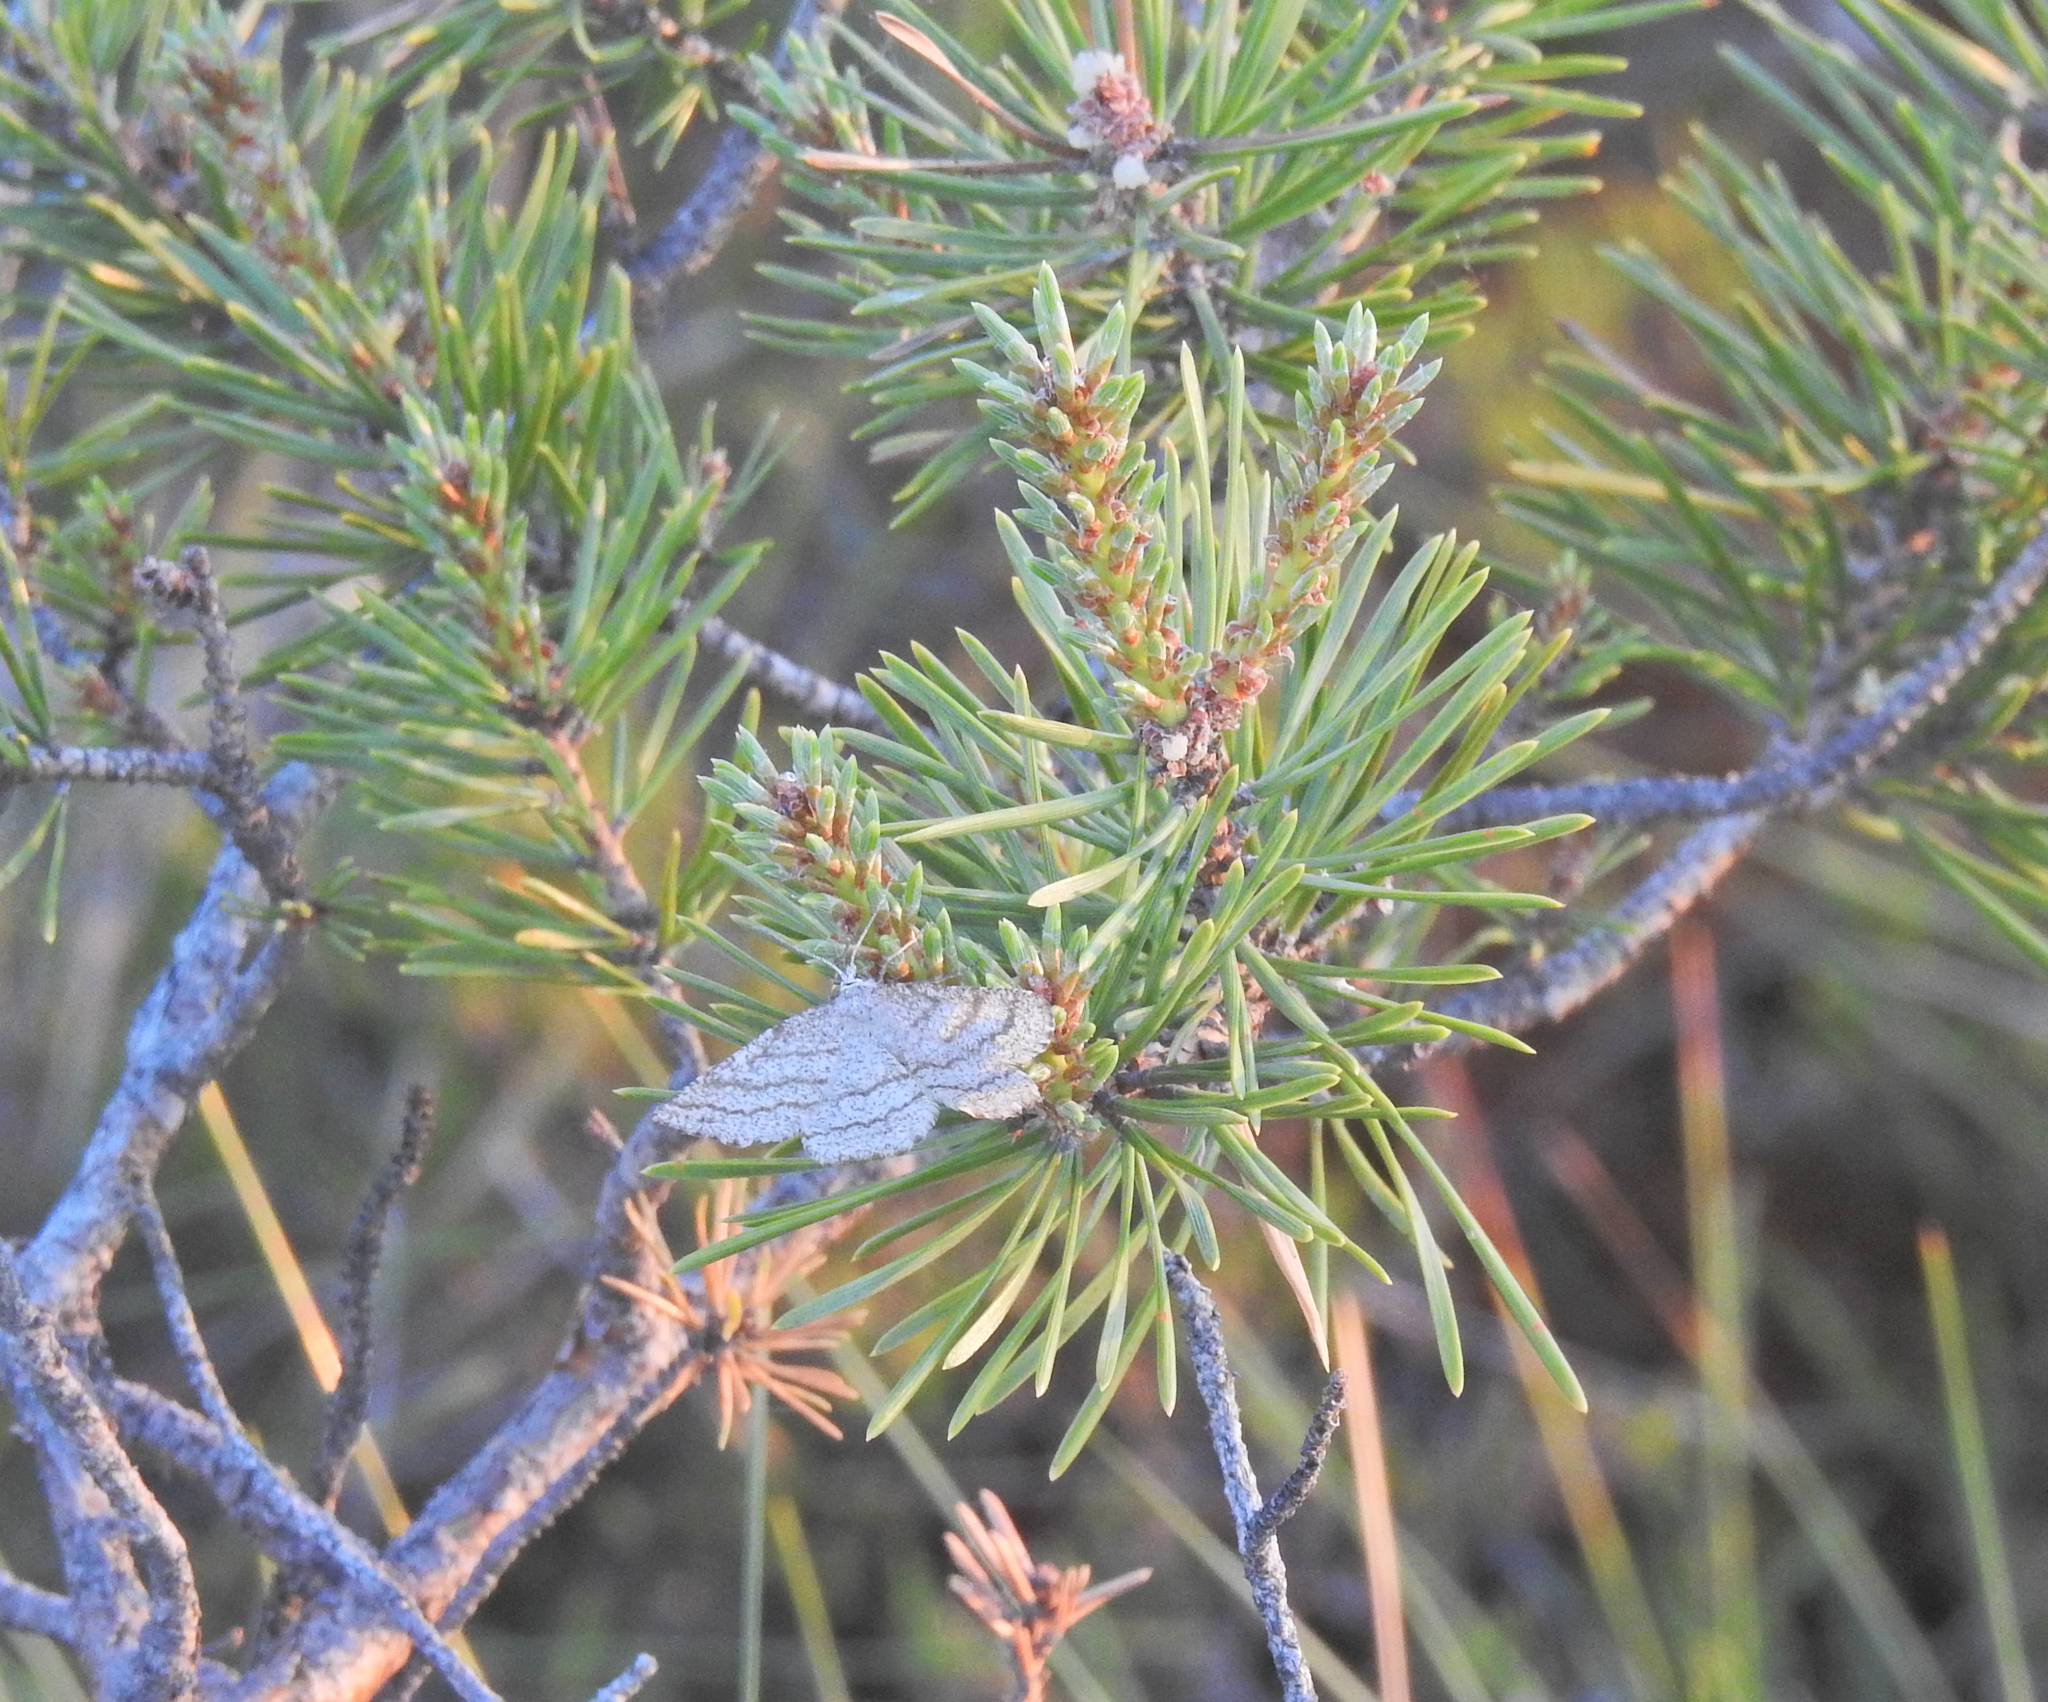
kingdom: Animalia
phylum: Arthropoda
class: Insecta
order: Lepidoptera
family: Geometridae
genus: Perconia
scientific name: Perconia strigillaria
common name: Grass wave
